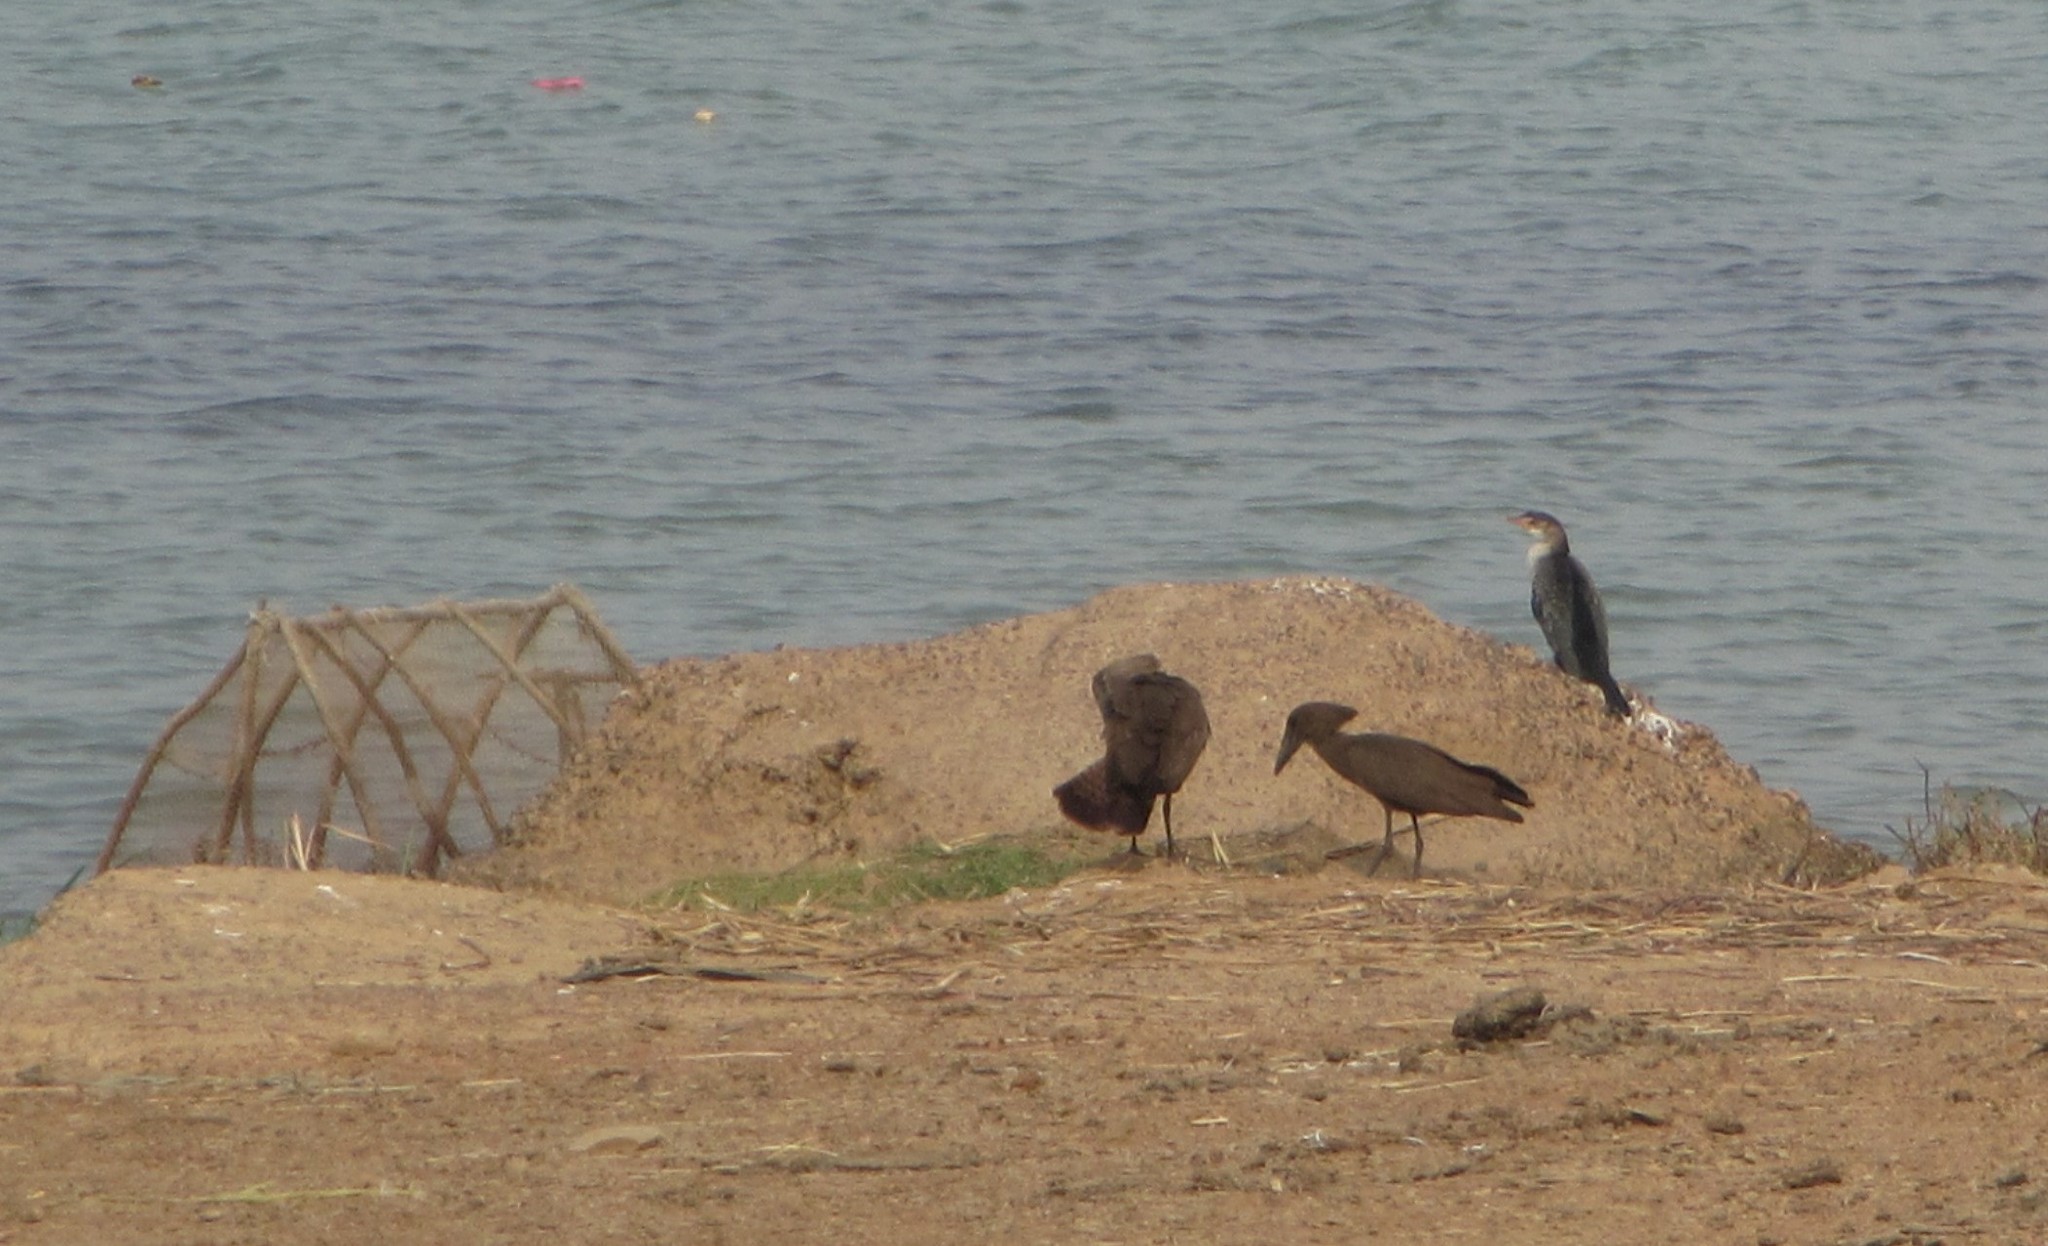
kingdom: Animalia
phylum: Chordata
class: Aves
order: Pelecaniformes
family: Scopidae
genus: Scopus
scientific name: Scopus umbretta
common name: Hamerkop
